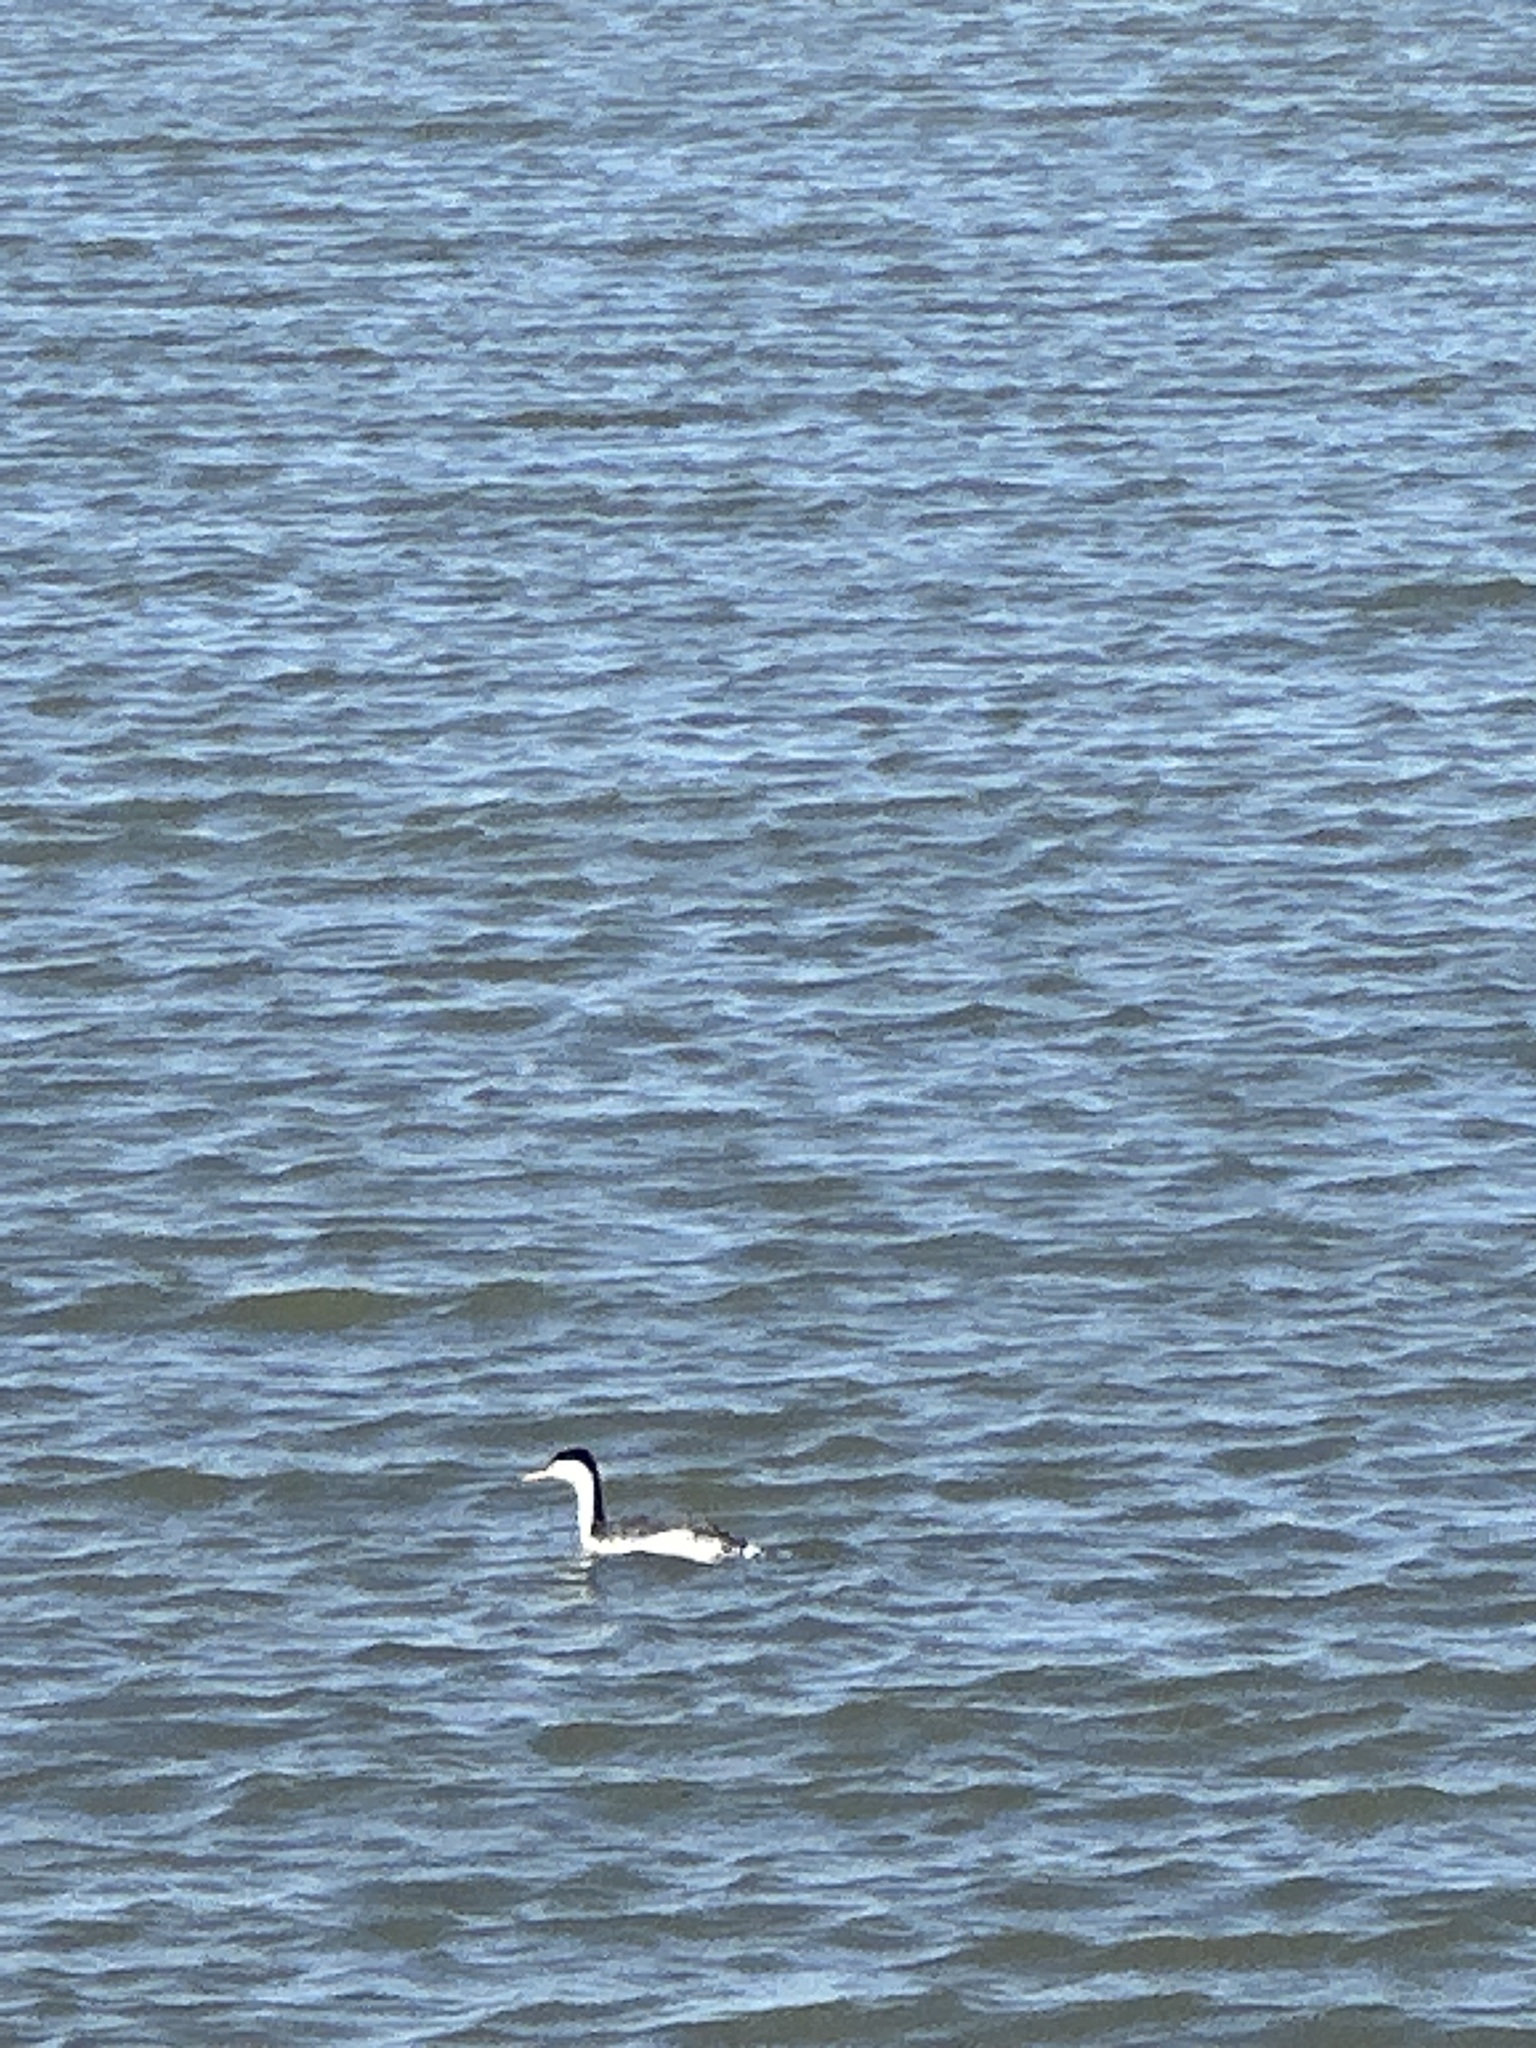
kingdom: Animalia
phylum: Chordata
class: Aves
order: Podicipediformes
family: Podicipedidae
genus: Aechmophorus
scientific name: Aechmophorus clarkii
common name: Clark's grebe
